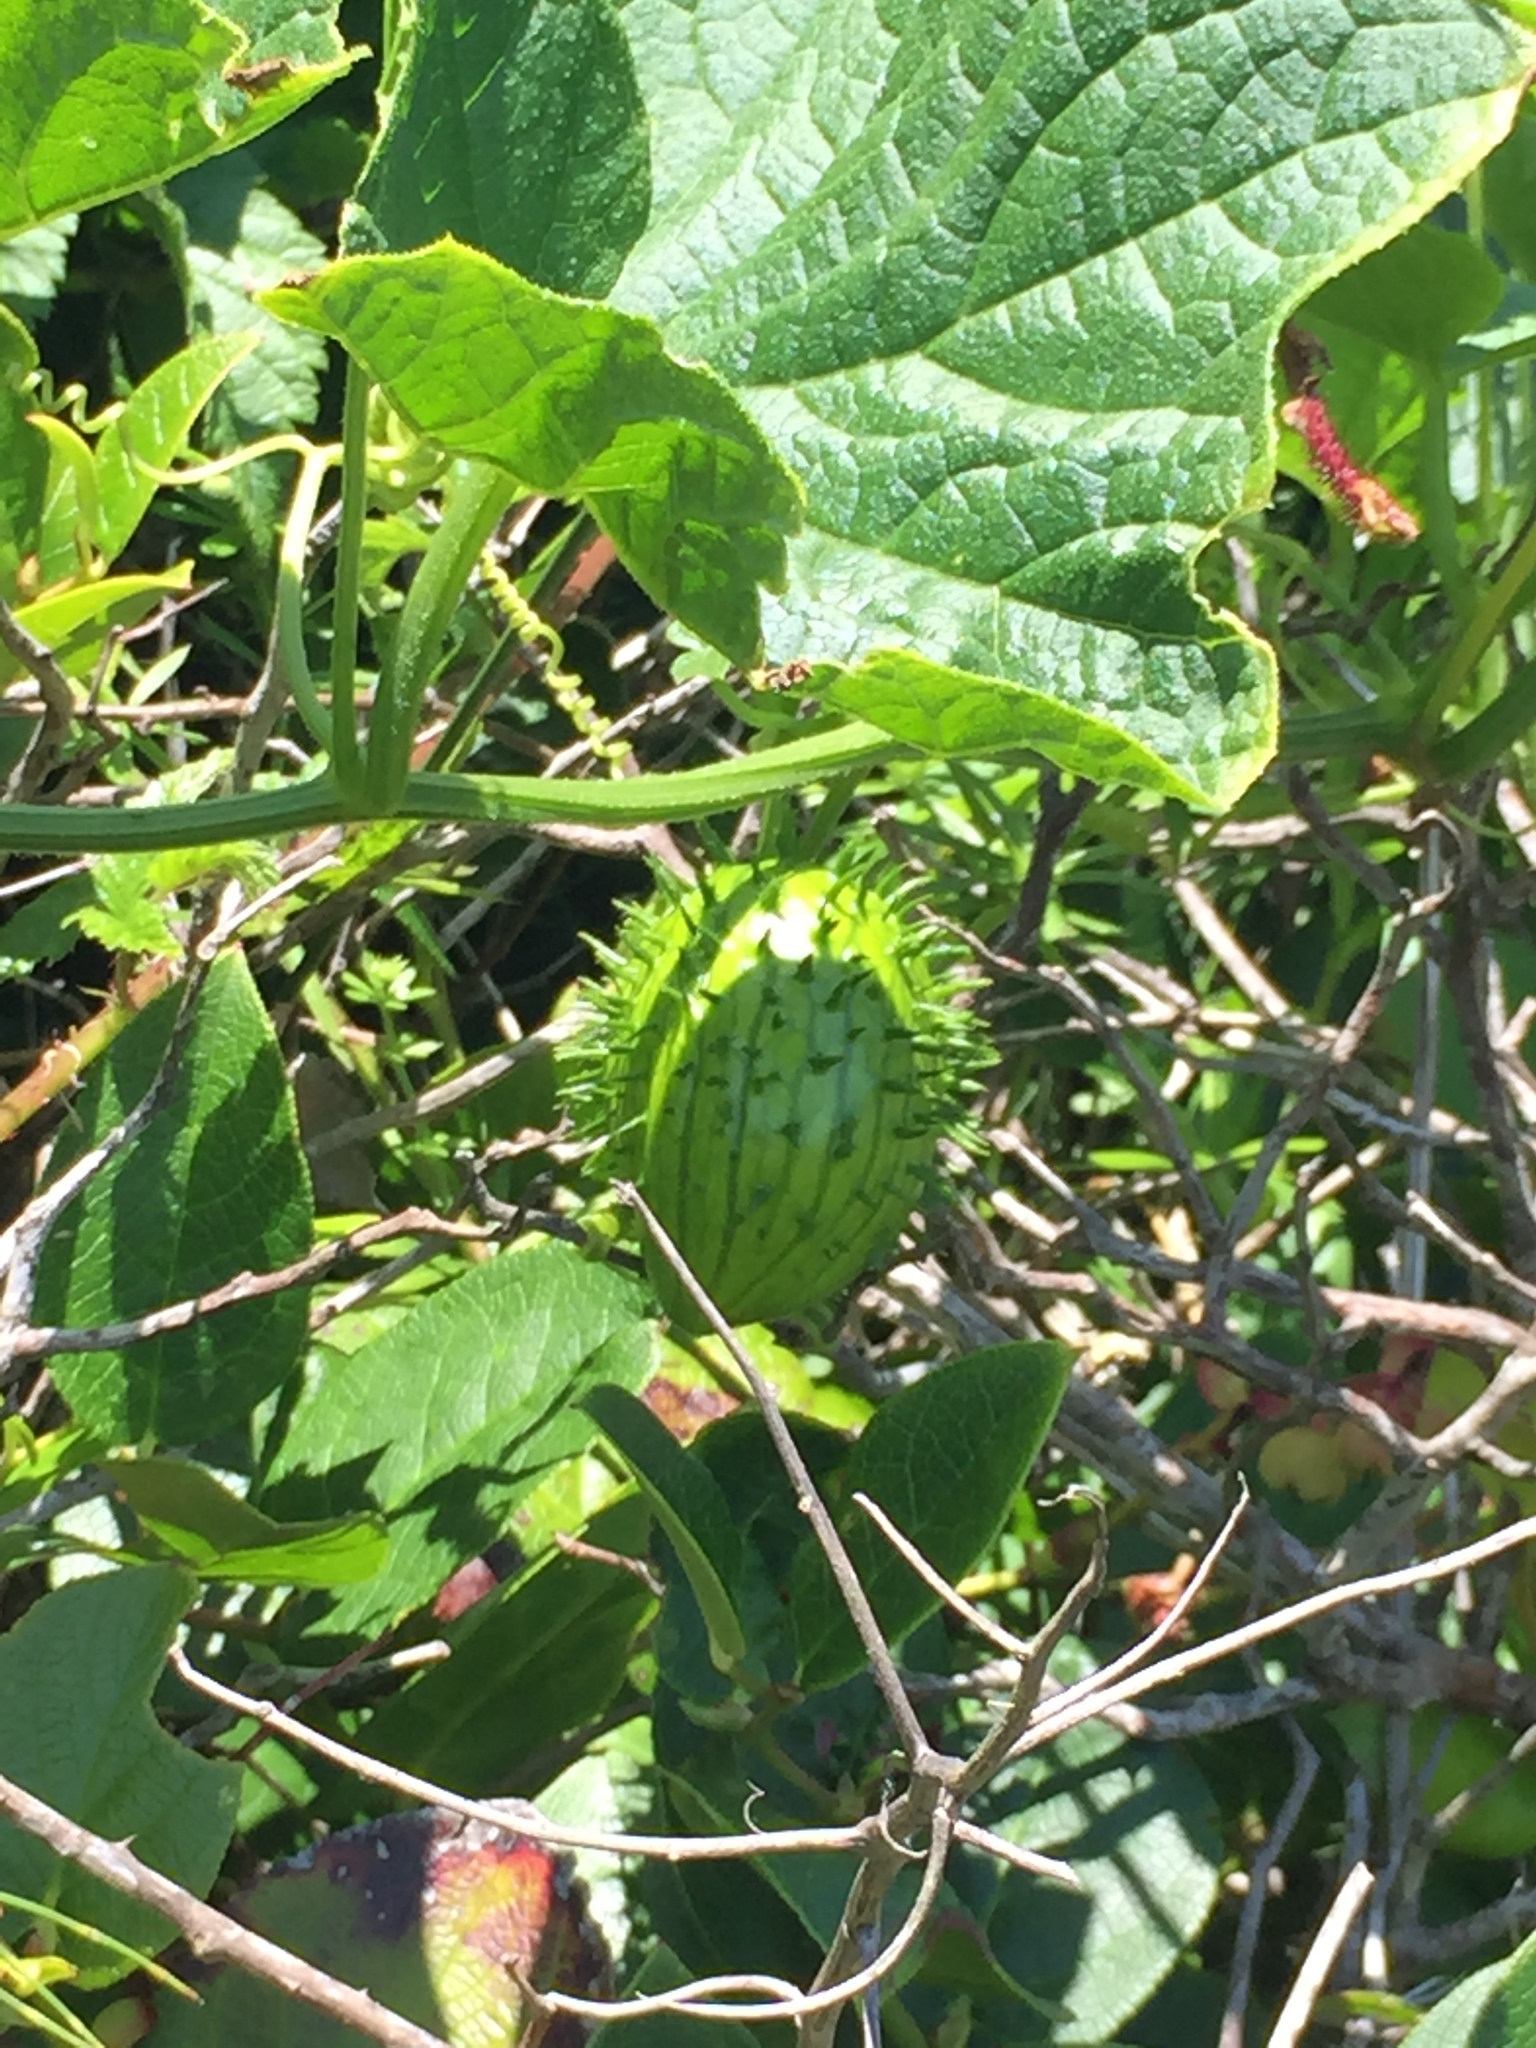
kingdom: Plantae
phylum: Tracheophyta
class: Magnoliopsida
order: Cucurbitales
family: Cucurbitaceae
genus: Marah
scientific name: Marah oregana
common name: Coastal manroot
